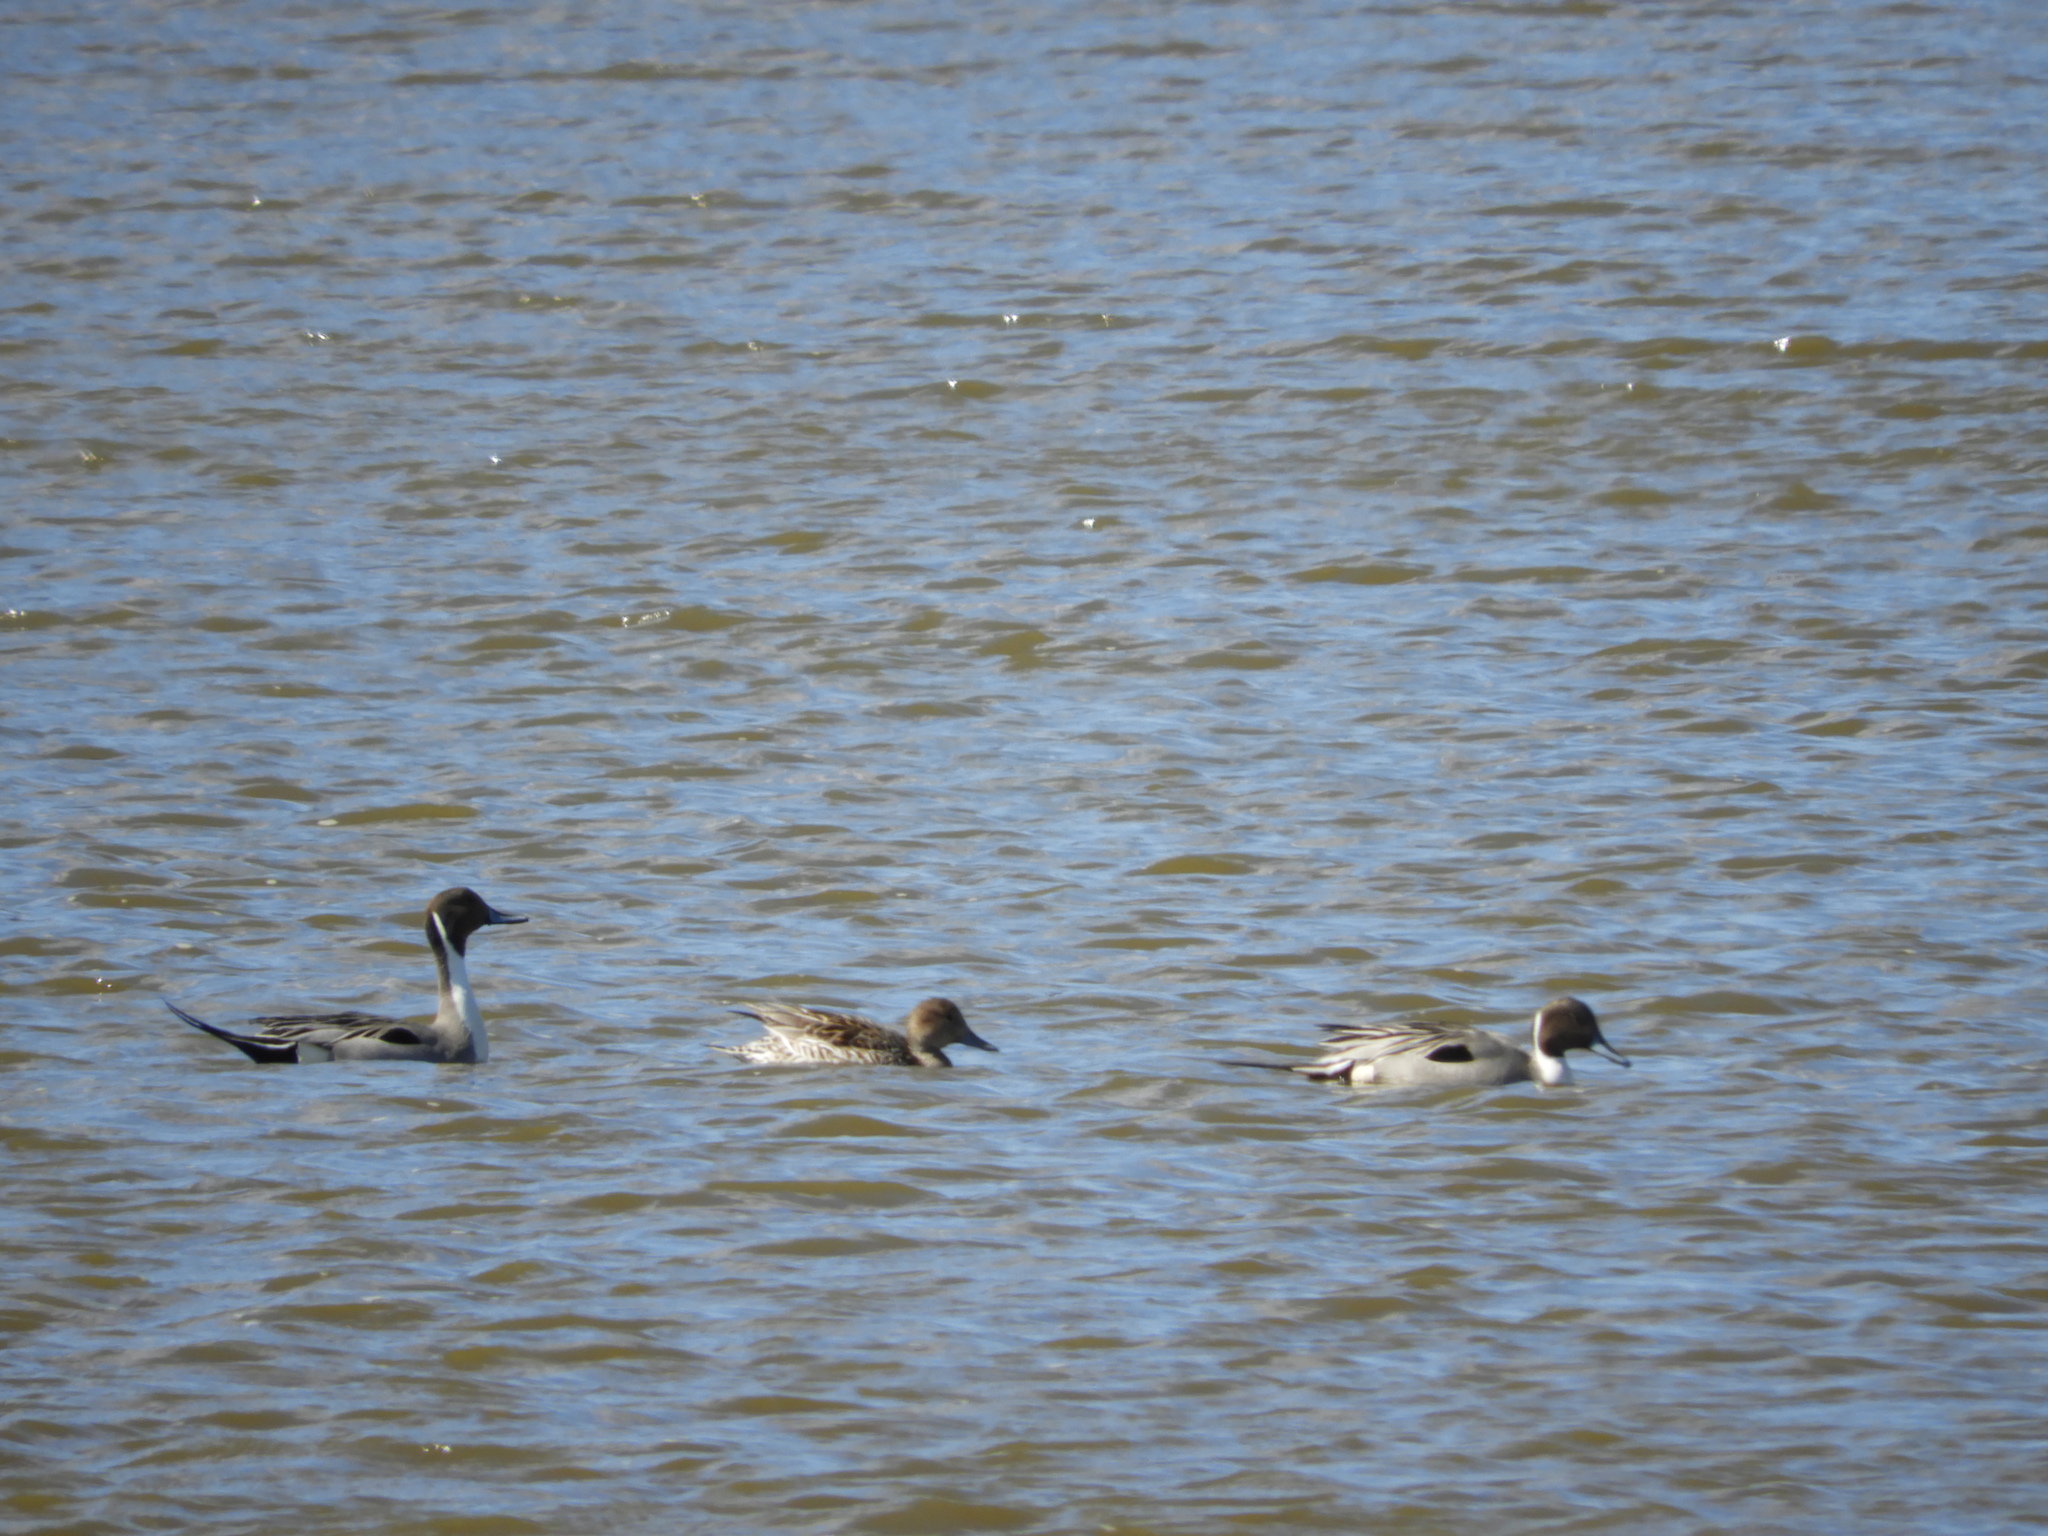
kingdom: Animalia
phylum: Chordata
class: Aves
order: Anseriformes
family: Anatidae
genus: Anas
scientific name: Anas acuta
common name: Northern pintail
